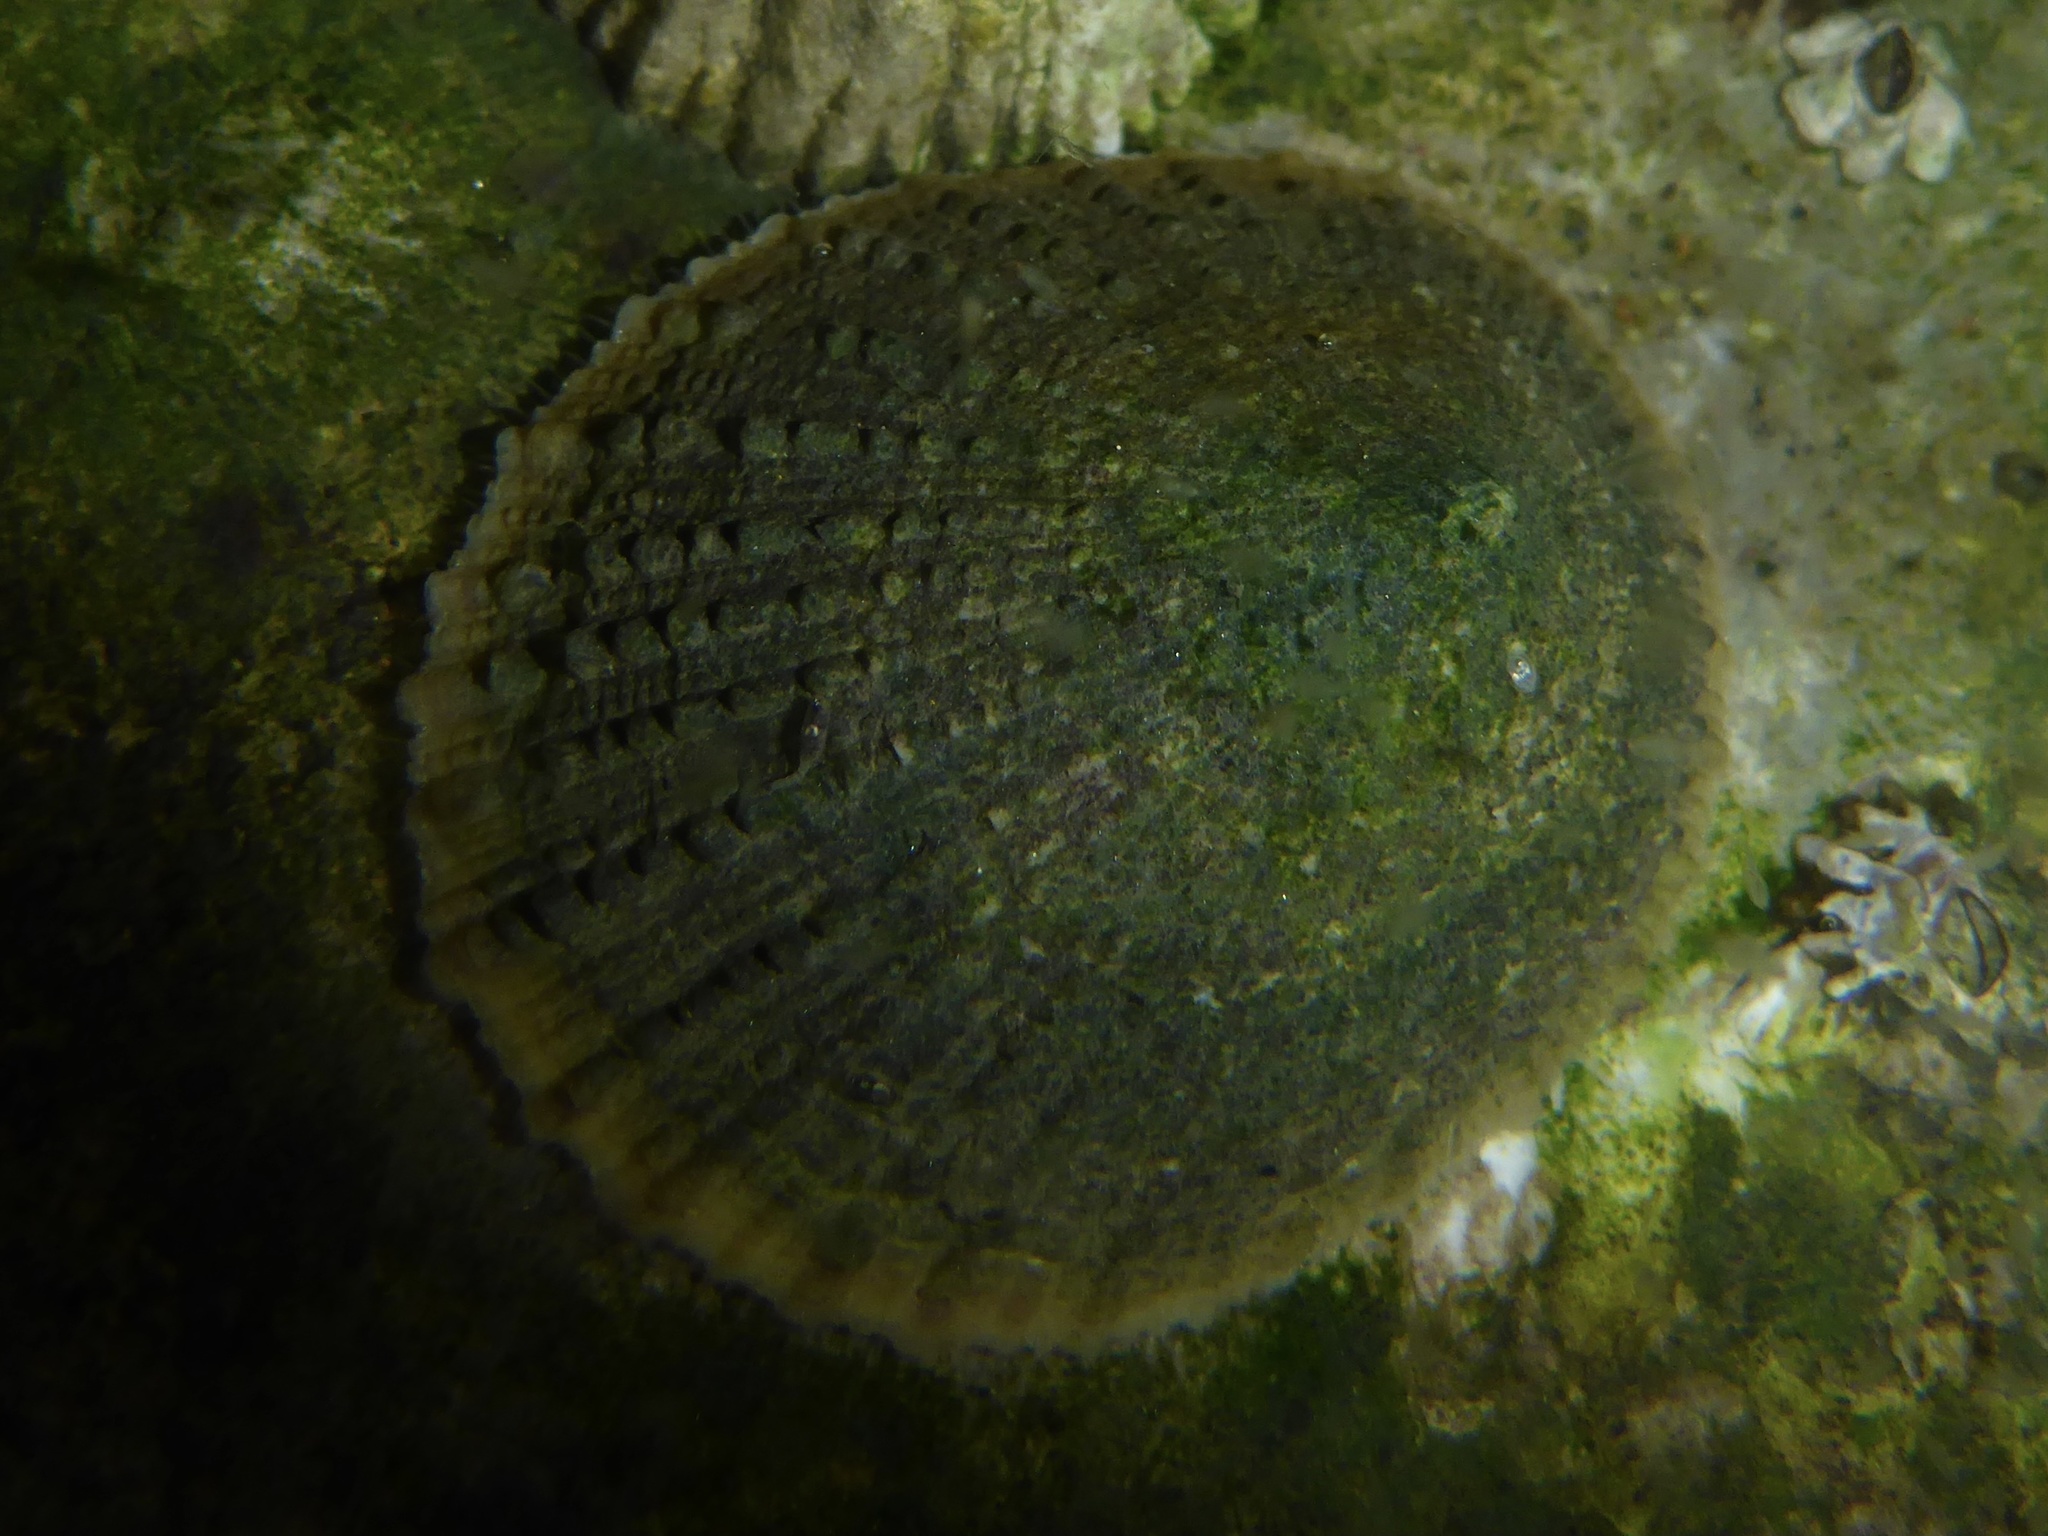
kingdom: Animalia
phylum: Mollusca
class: Gastropoda
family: Lottiidae
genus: Lottia
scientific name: Lottia limatula
